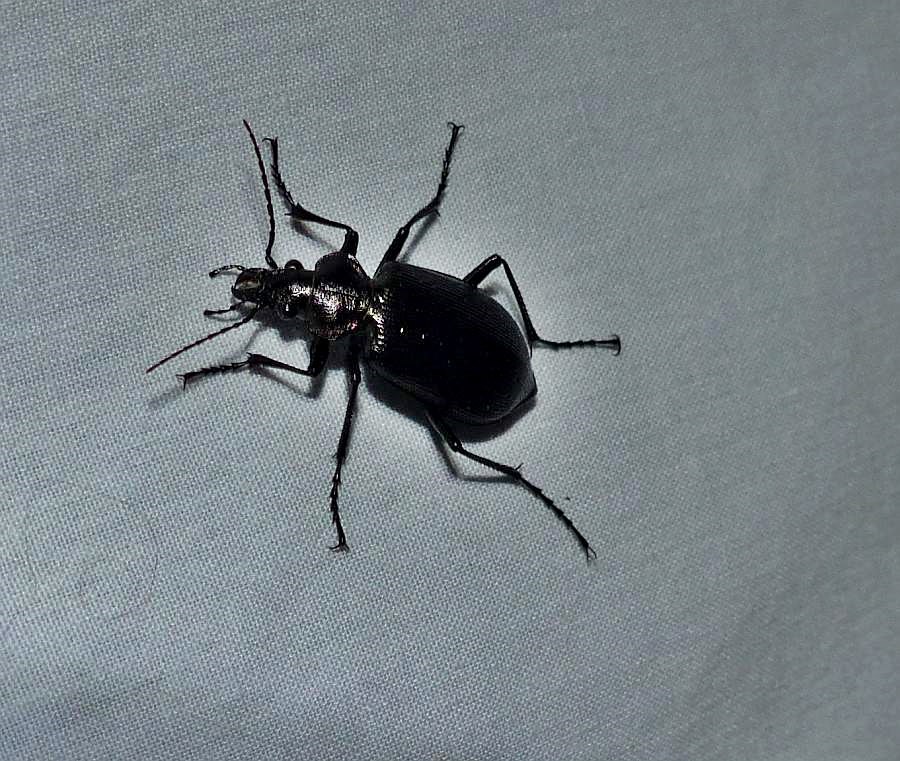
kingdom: Animalia
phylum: Arthropoda
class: Insecta
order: Coleoptera
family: Carabidae
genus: Calosoma
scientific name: Calosoma frigidum
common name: Cold-country caterpillar hunter
